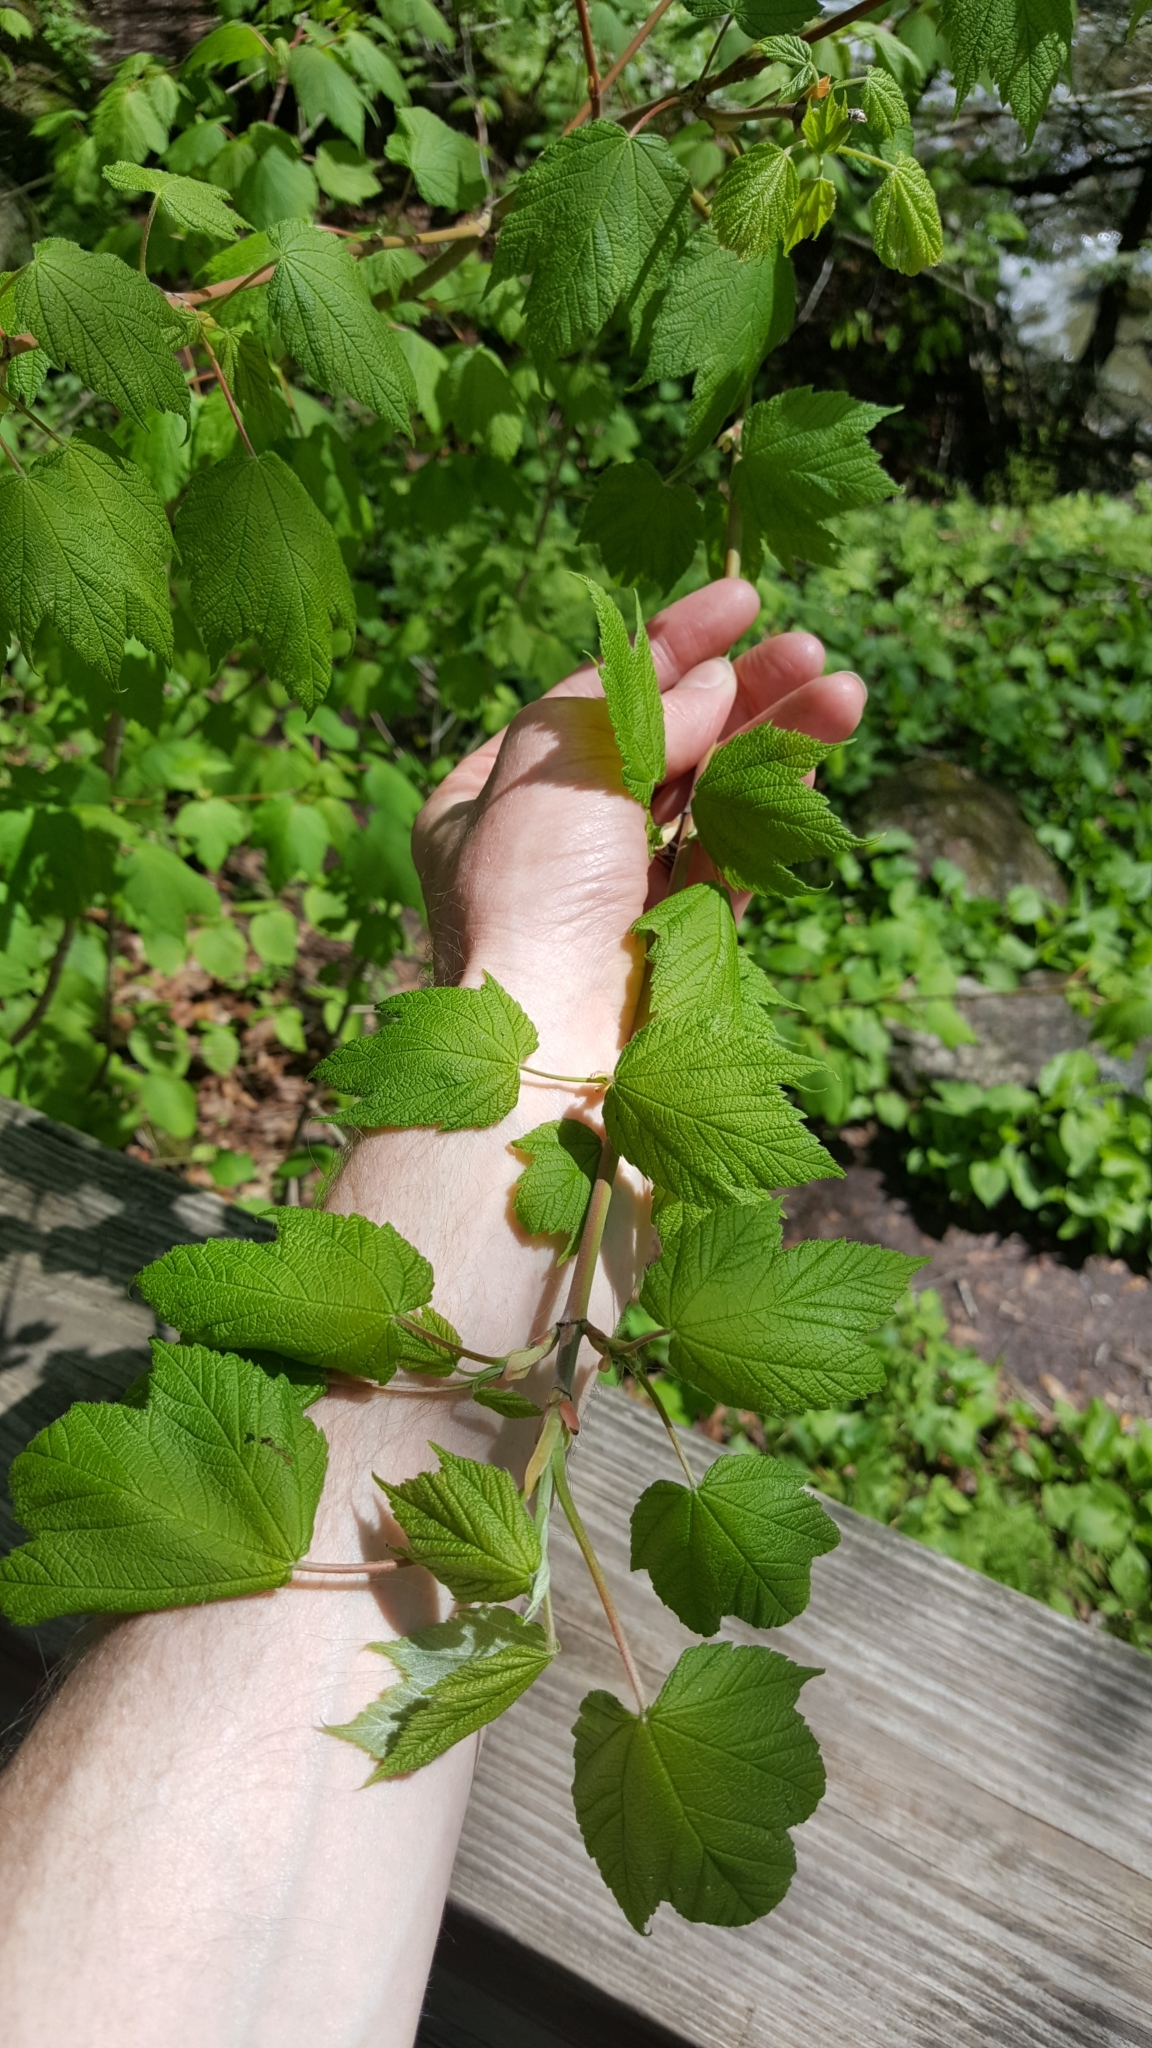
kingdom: Plantae
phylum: Tracheophyta
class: Magnoliopsida
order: Sapindales
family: Sapindaceae
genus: Acer
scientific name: Acer spicatum
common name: Mountain maple
